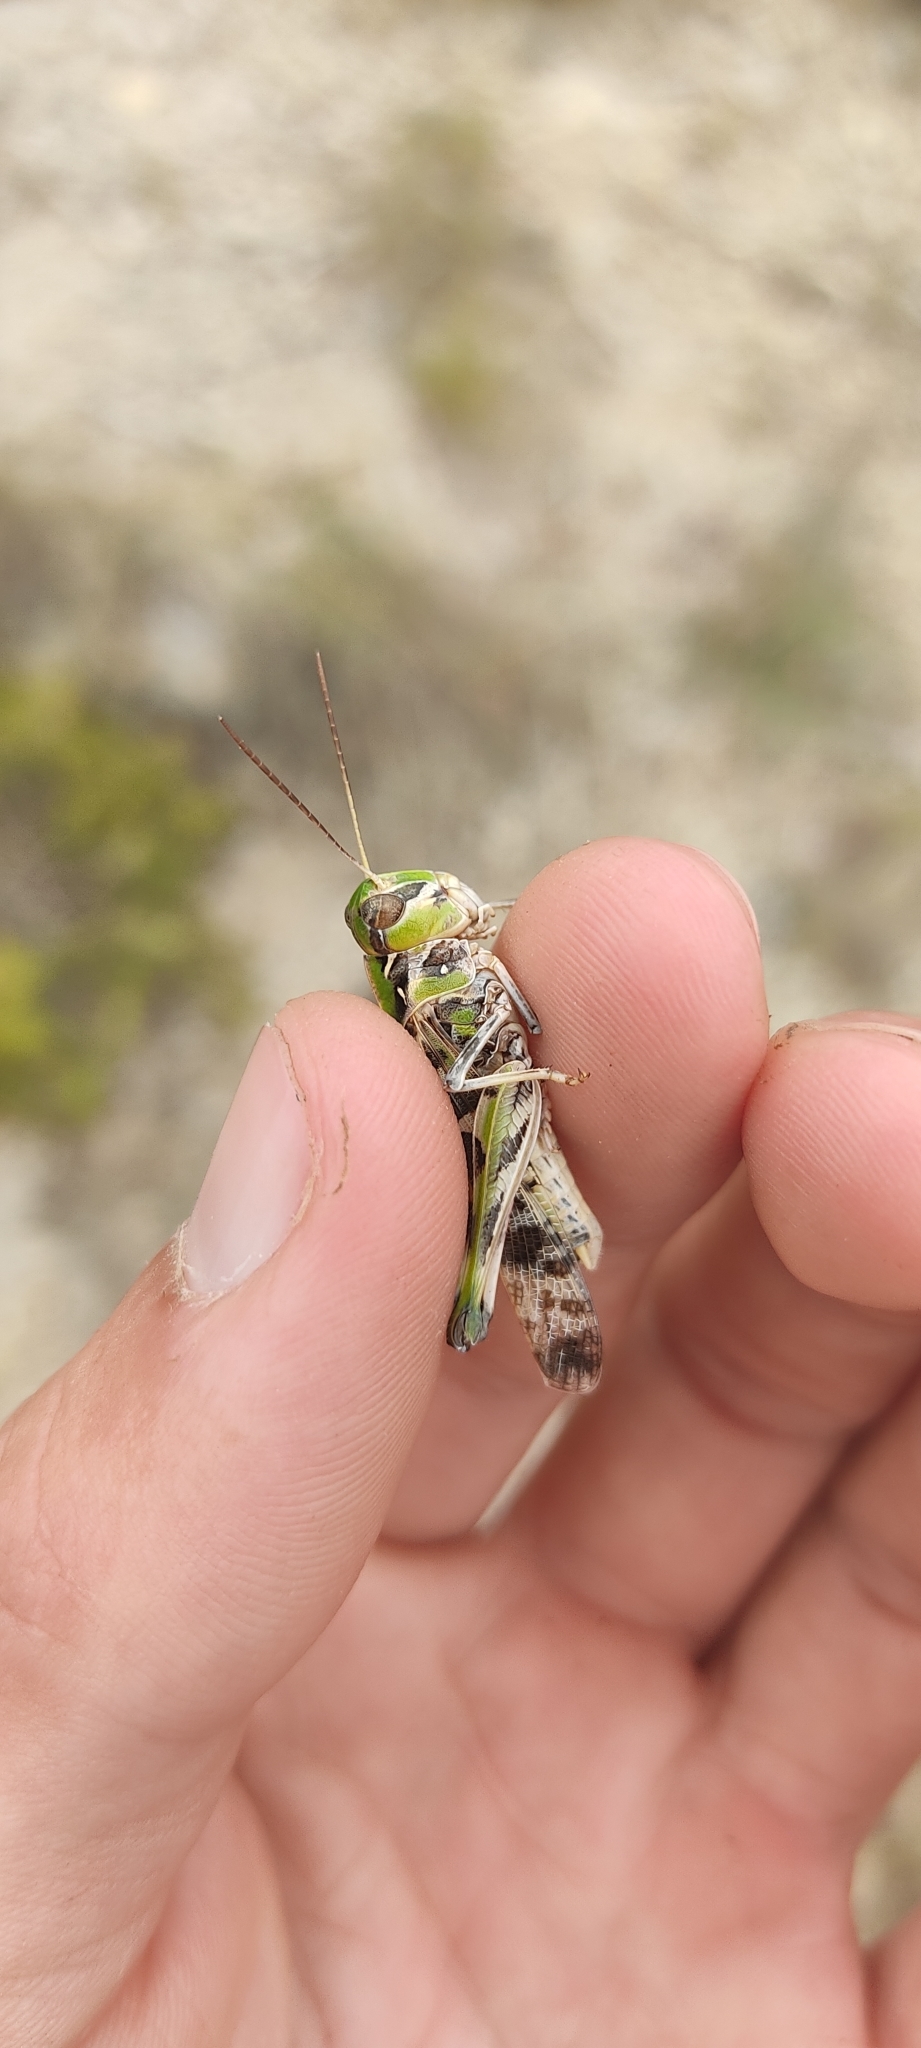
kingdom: Animalia
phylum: Arthropoda
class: Insecta
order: Orthoptera
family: Acrididae
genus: Oedaleus
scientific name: Oedaleus decorus
